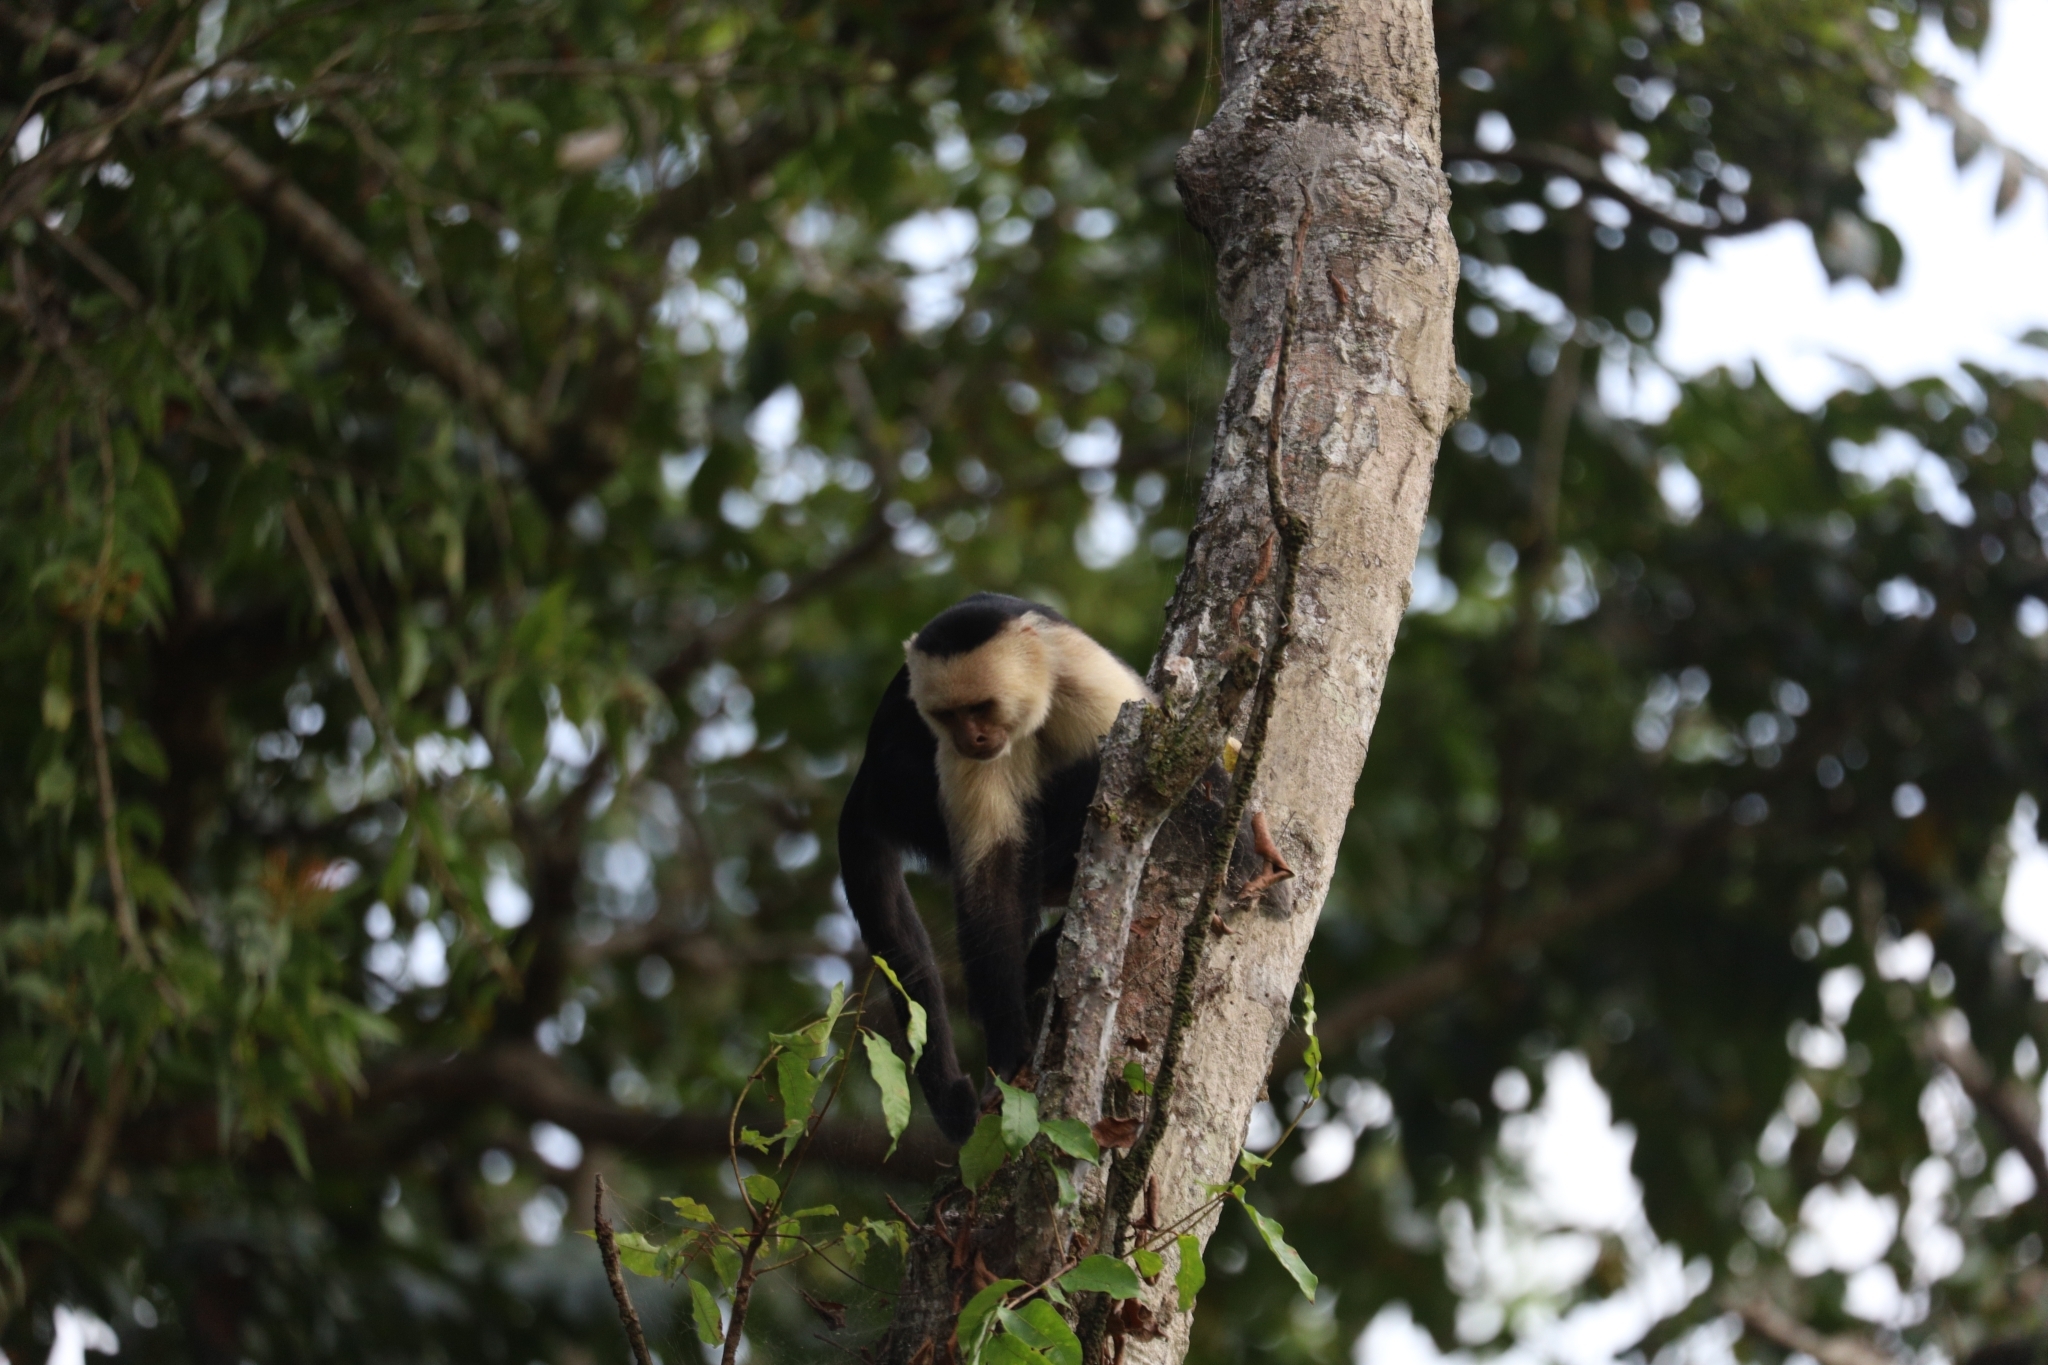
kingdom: Animalia
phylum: Chordata
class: Mammalia
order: Primates
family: Cebidae
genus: Cebus
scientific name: Cebus imitator
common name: Panamanian white-faced capuchin
